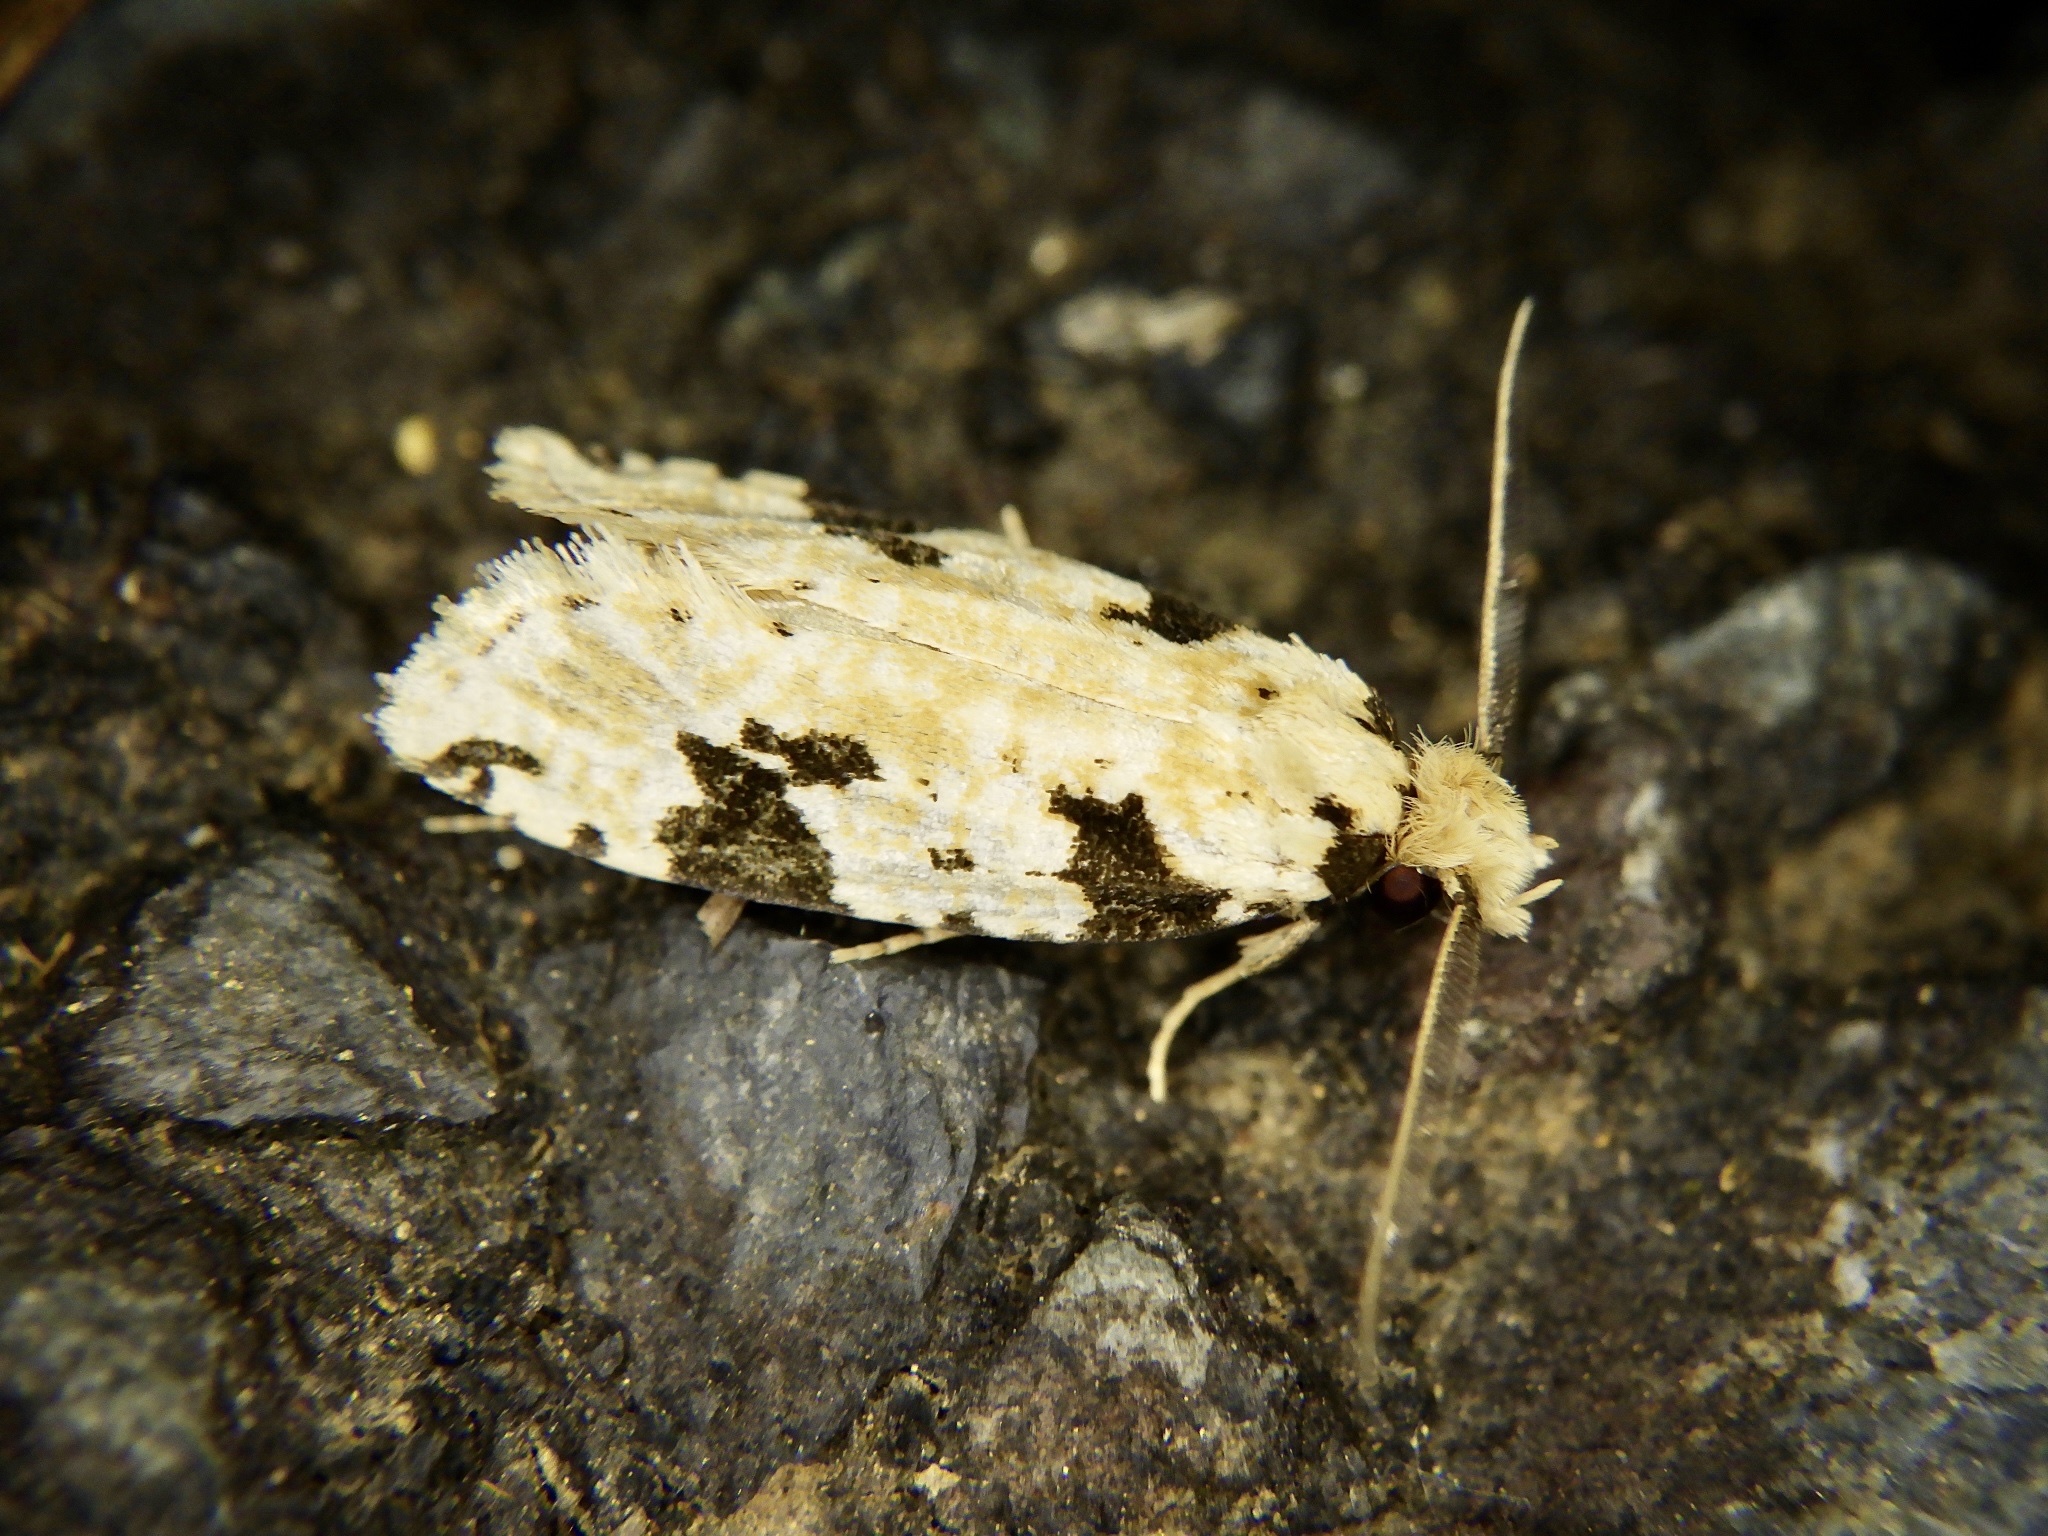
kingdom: Animalia
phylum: Arthropoda
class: Insecta
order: Lepidoptera
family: Tineidae
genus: Pelecystola
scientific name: Pelecystola strigosa
